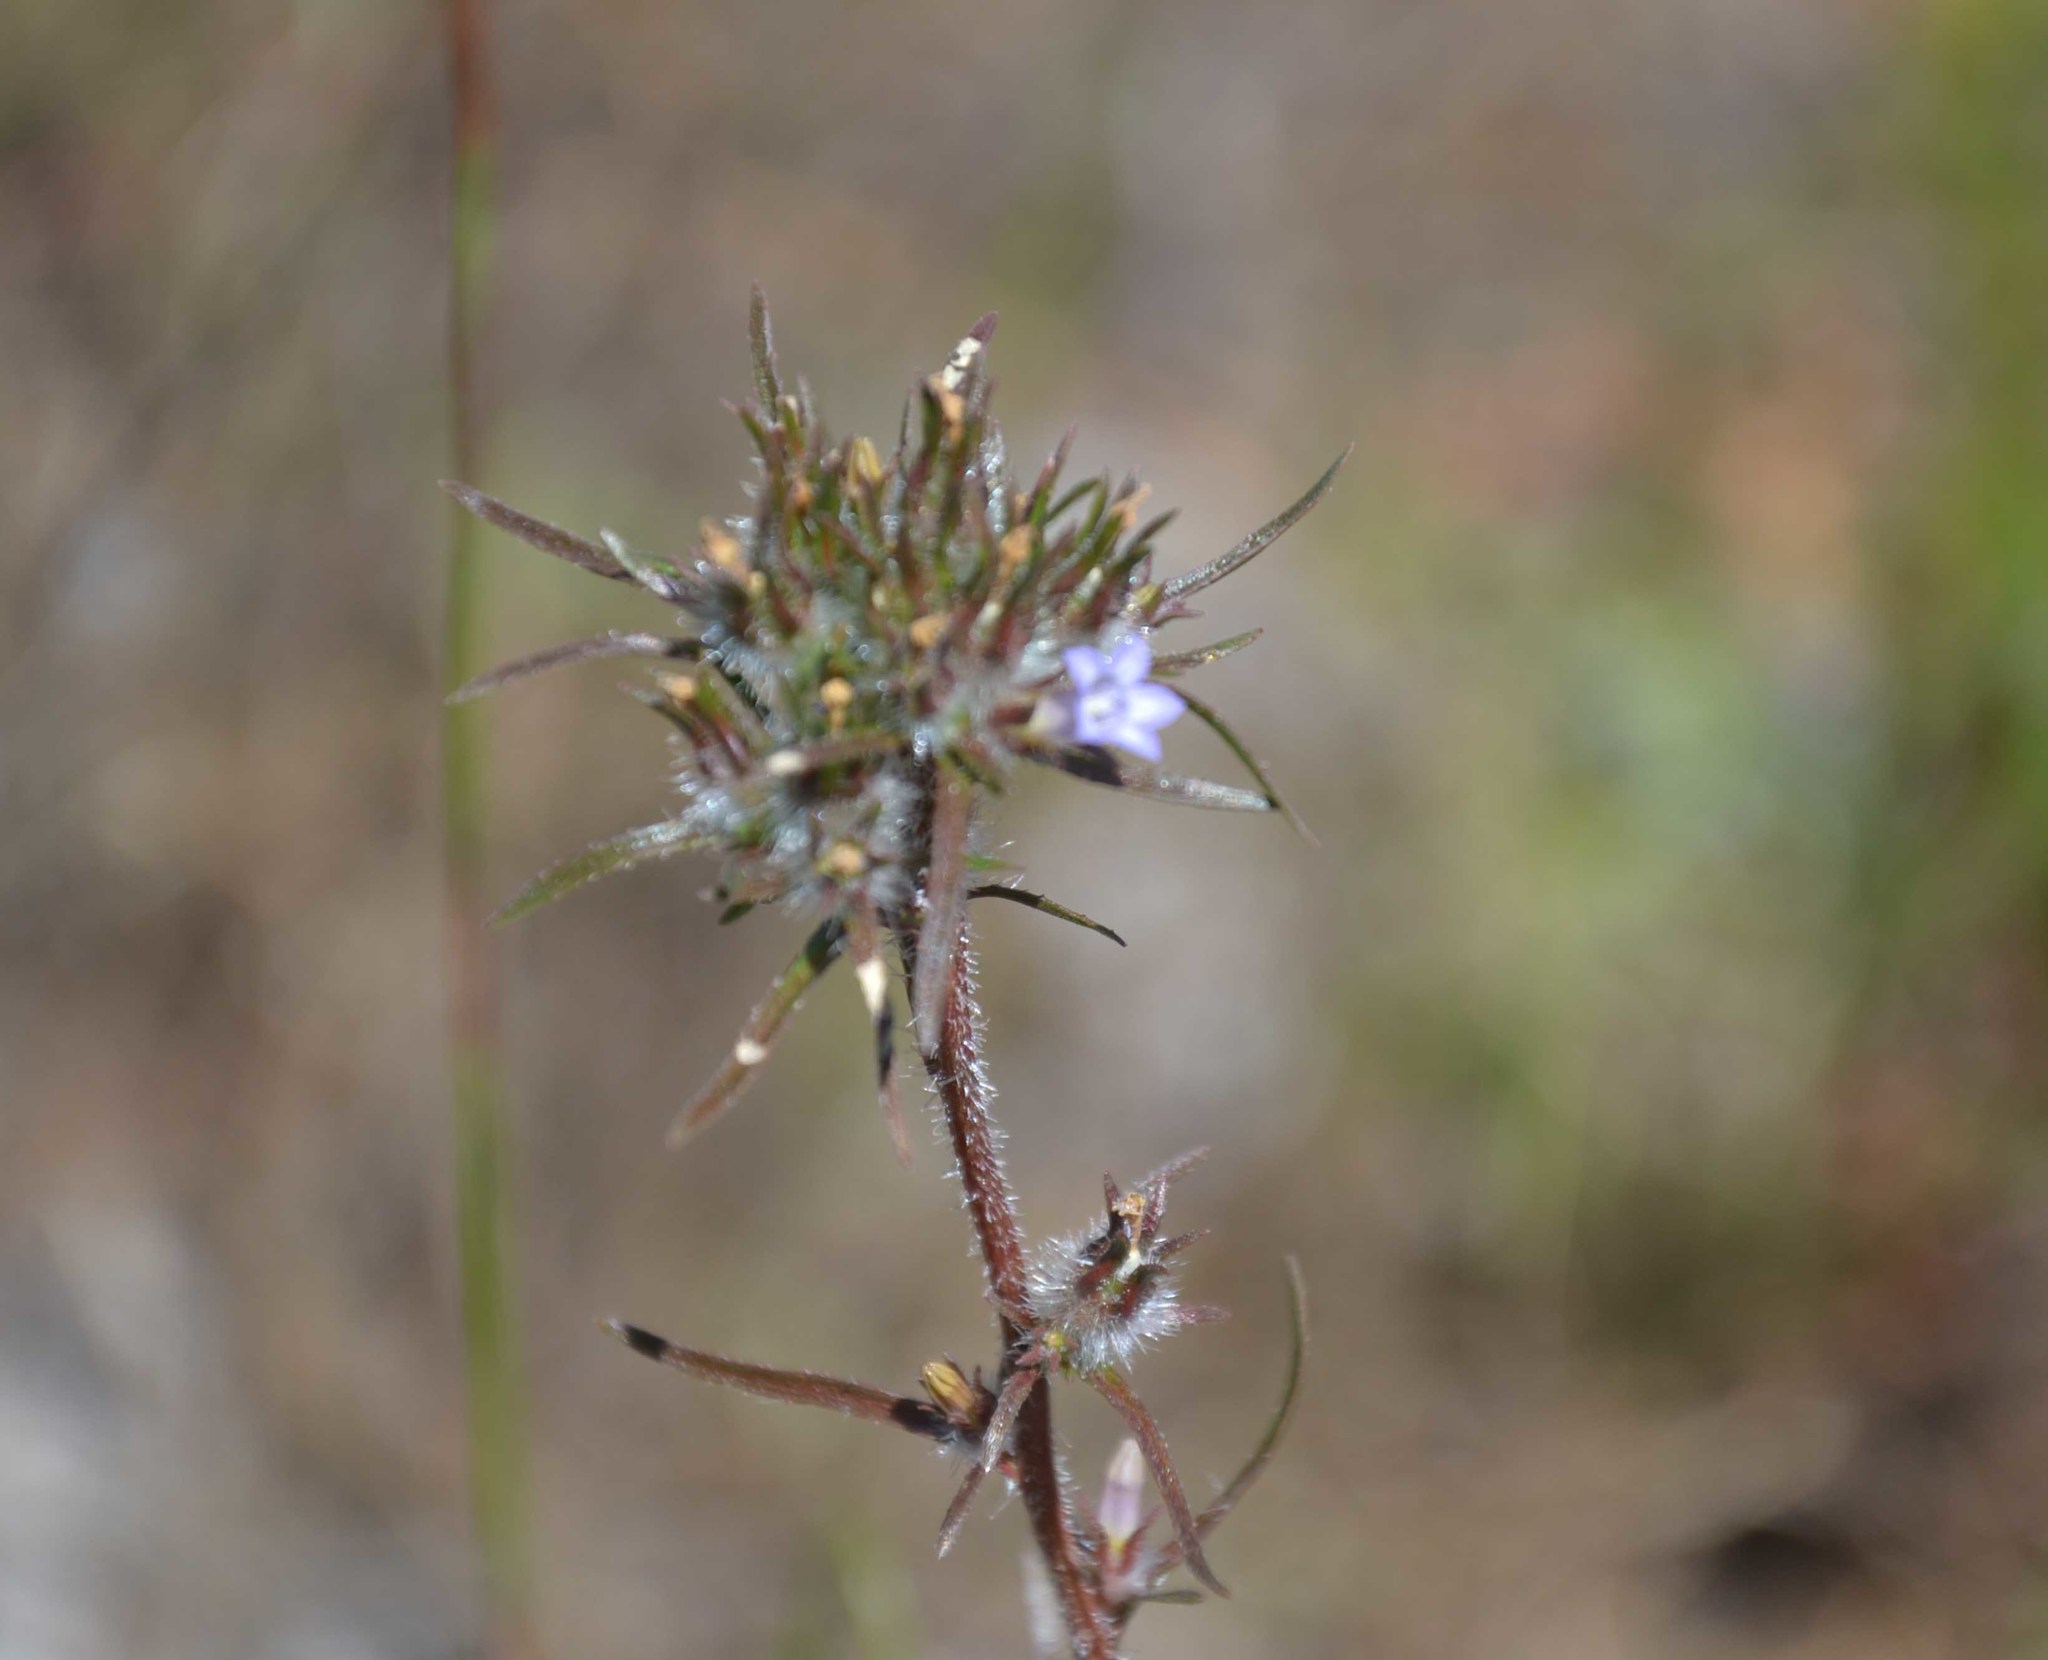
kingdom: Plantae
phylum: Tracheophyta
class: Magnoliopsida
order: Asterales
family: Campanulaceae
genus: Microcodon
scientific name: Microcodon glomeratus
